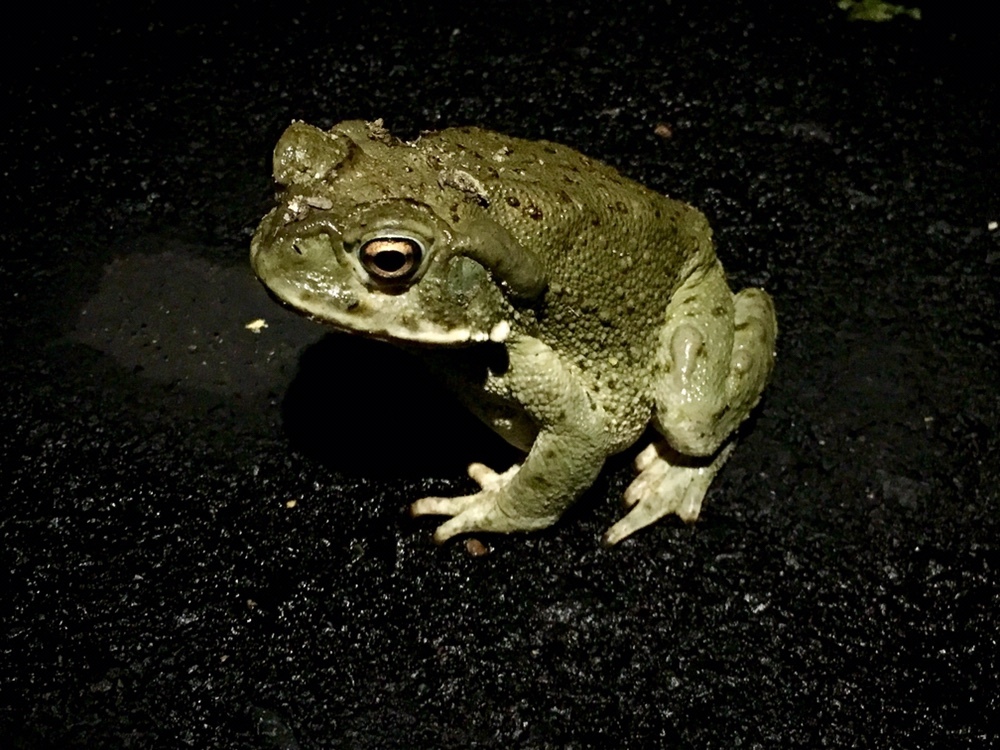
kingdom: Animalia
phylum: Chordata
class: Amphibia
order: Anura
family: Bufonidae
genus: Incilius
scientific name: Incilius alvarius
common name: Sonoran desert toad
